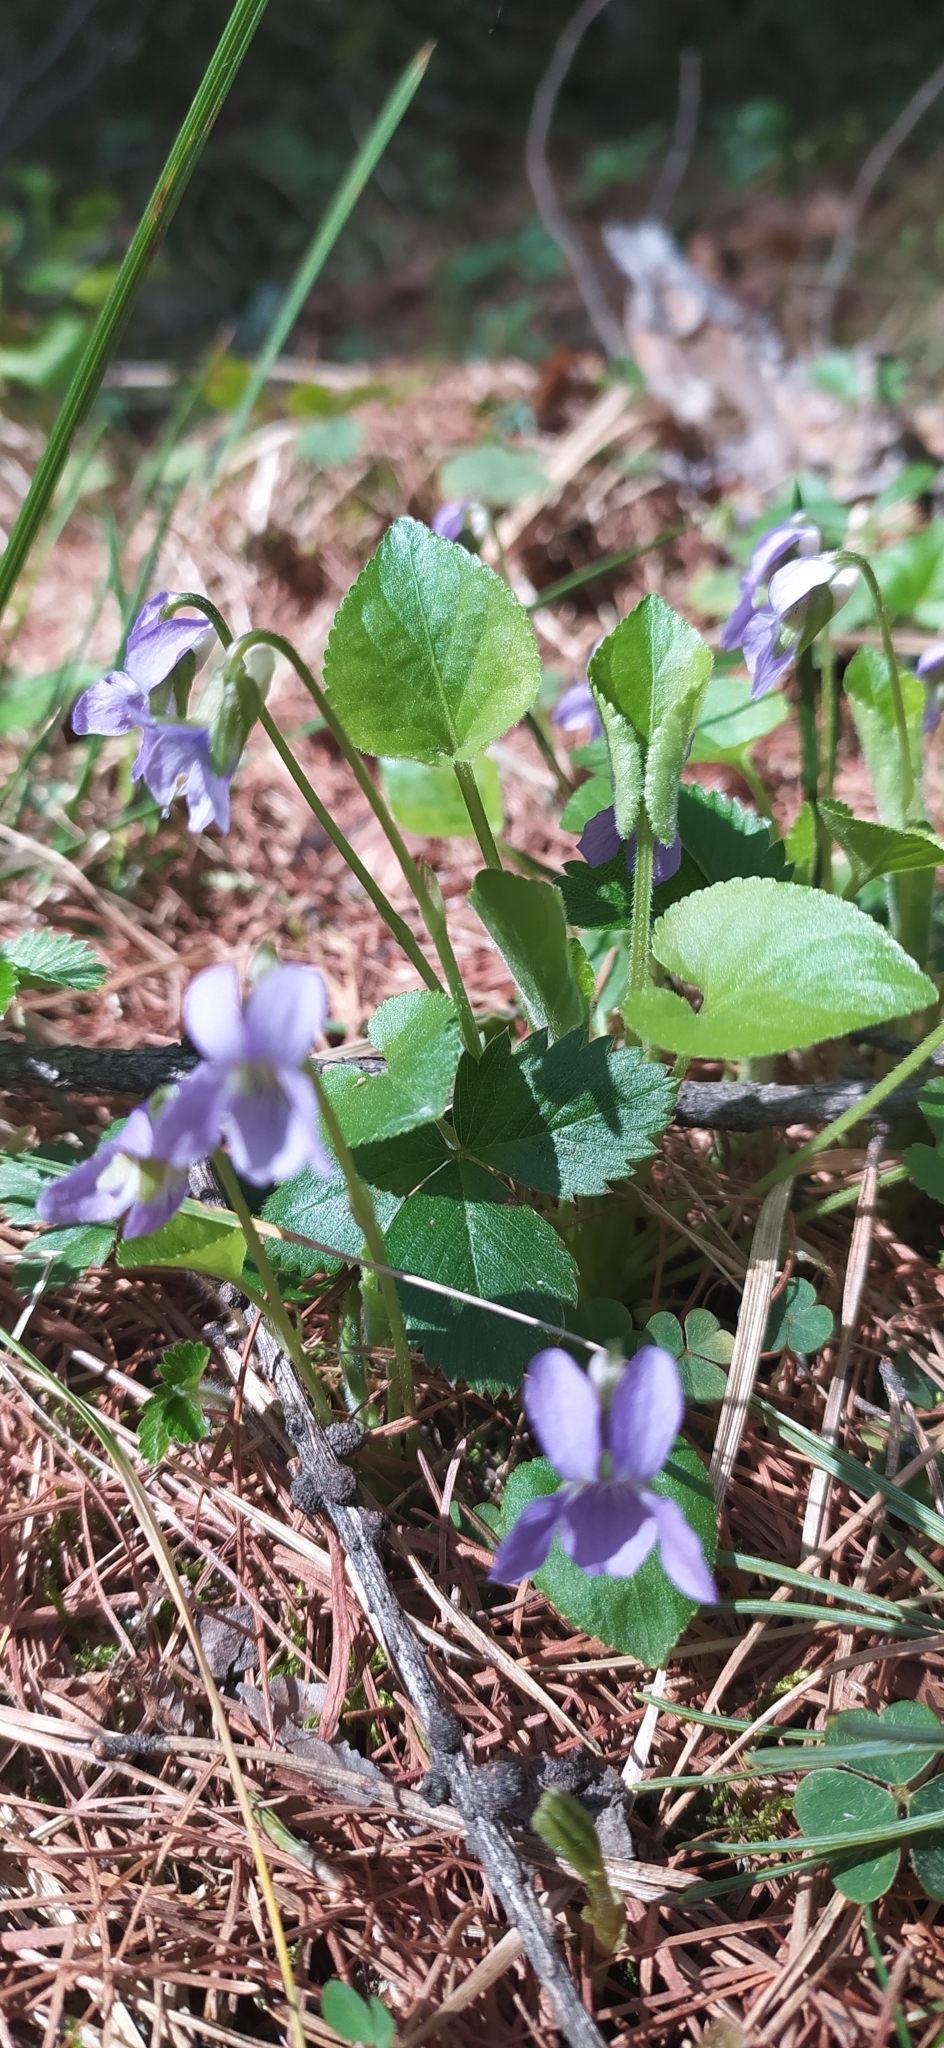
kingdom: Plantae
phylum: Tracheophyta
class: Magnoliopsida
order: Malpighiales
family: Violaceae
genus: Viola
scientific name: Viola rupestris
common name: Teesdale violet
